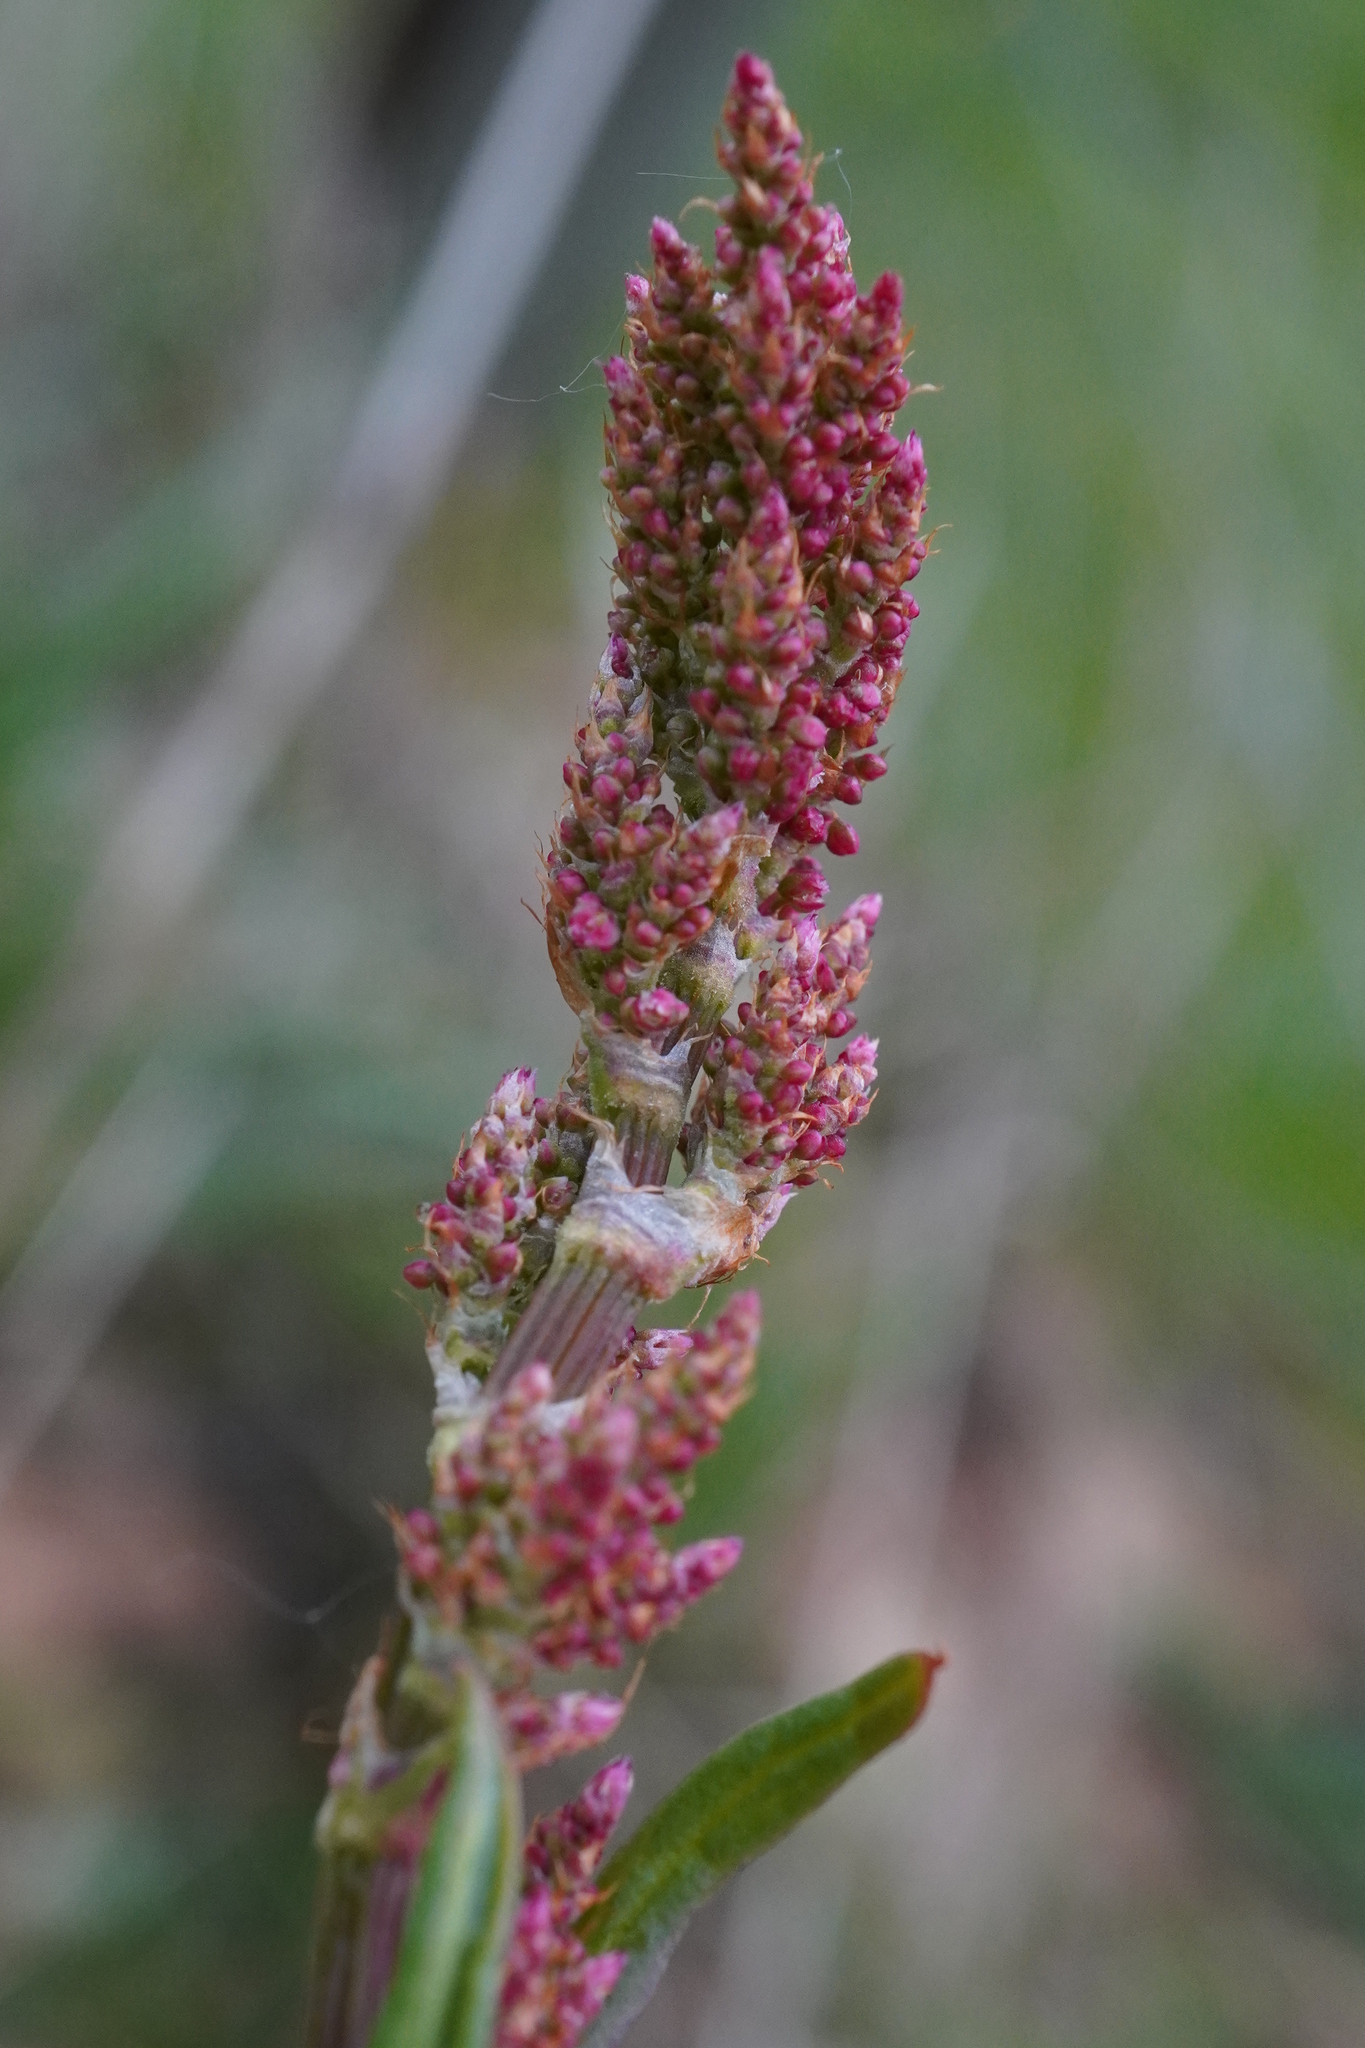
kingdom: Plantae
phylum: Tracheophyta
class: Magnoliopsida
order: Caryophyllales
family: Polygonaceae
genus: Rumex
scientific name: Rumex acetosa
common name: Garden sorrel
